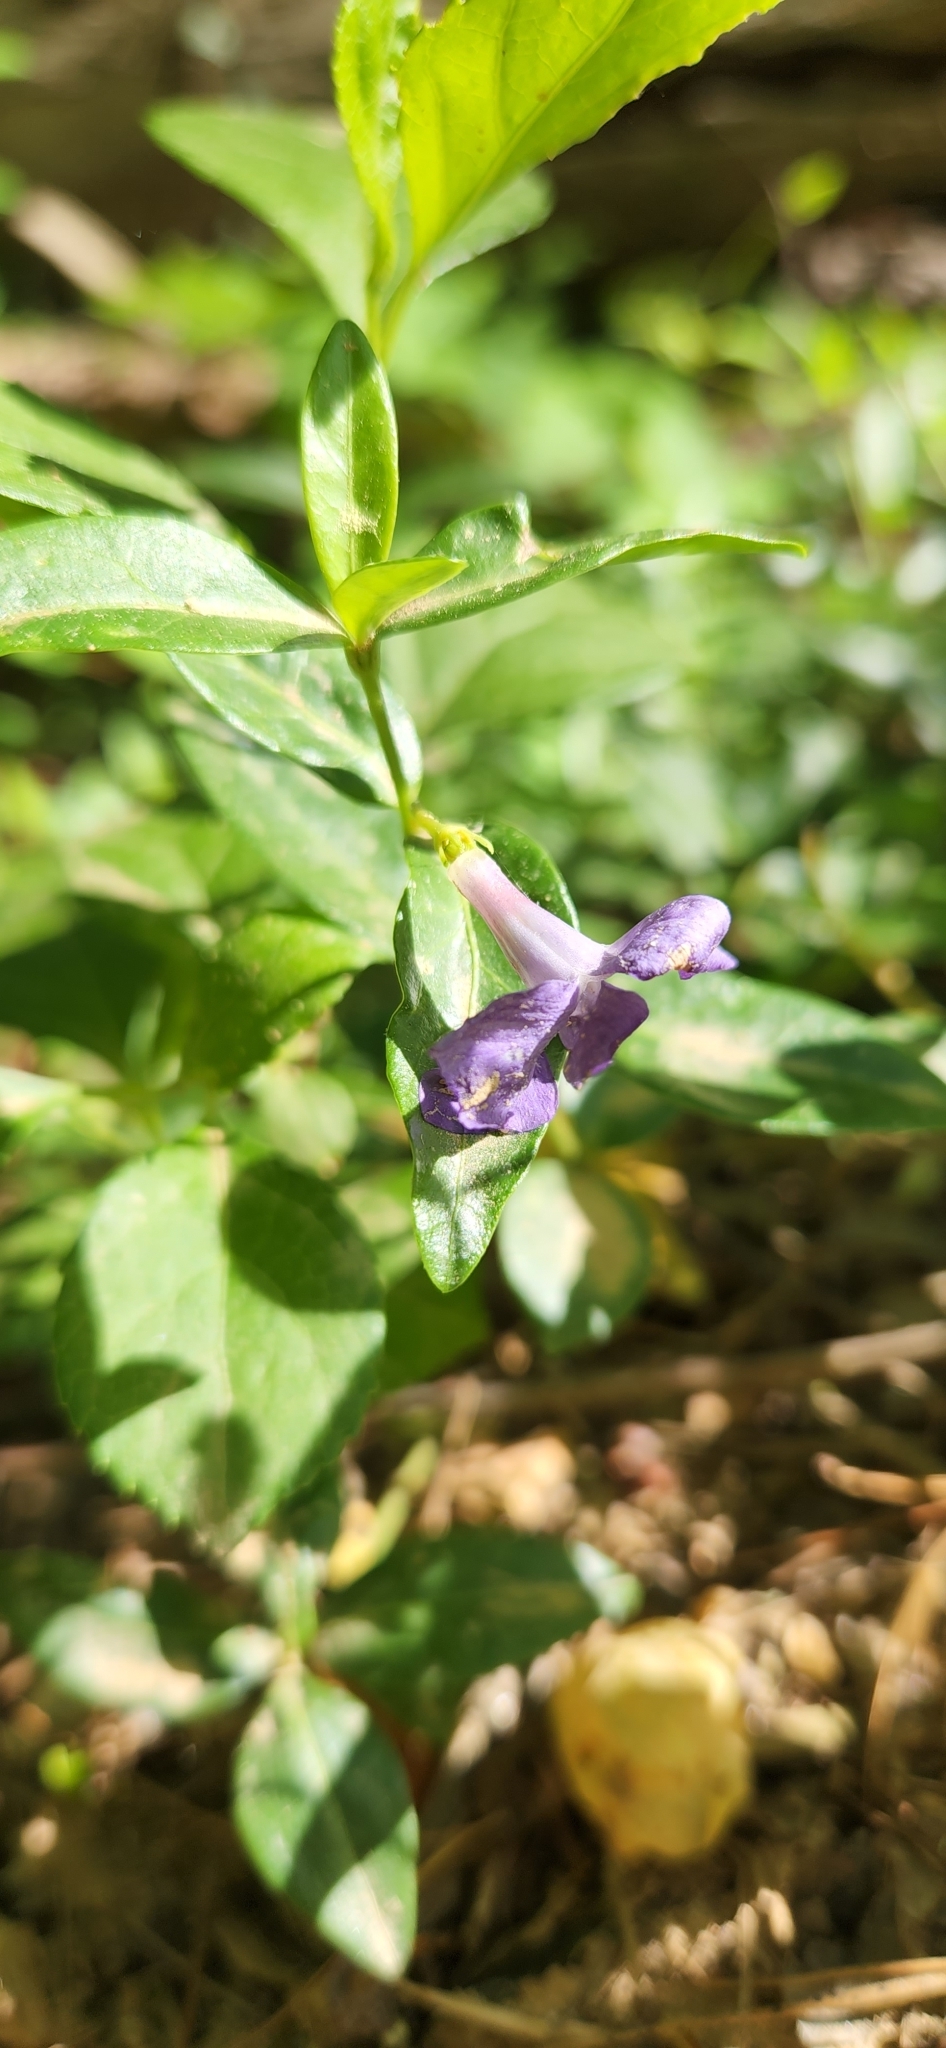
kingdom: Plantae
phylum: Tracheophyta
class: Magnoliopsida
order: Gentianales
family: Apocynaceae
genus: Vinca
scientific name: Vinca minor
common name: Lesser periwinkle
